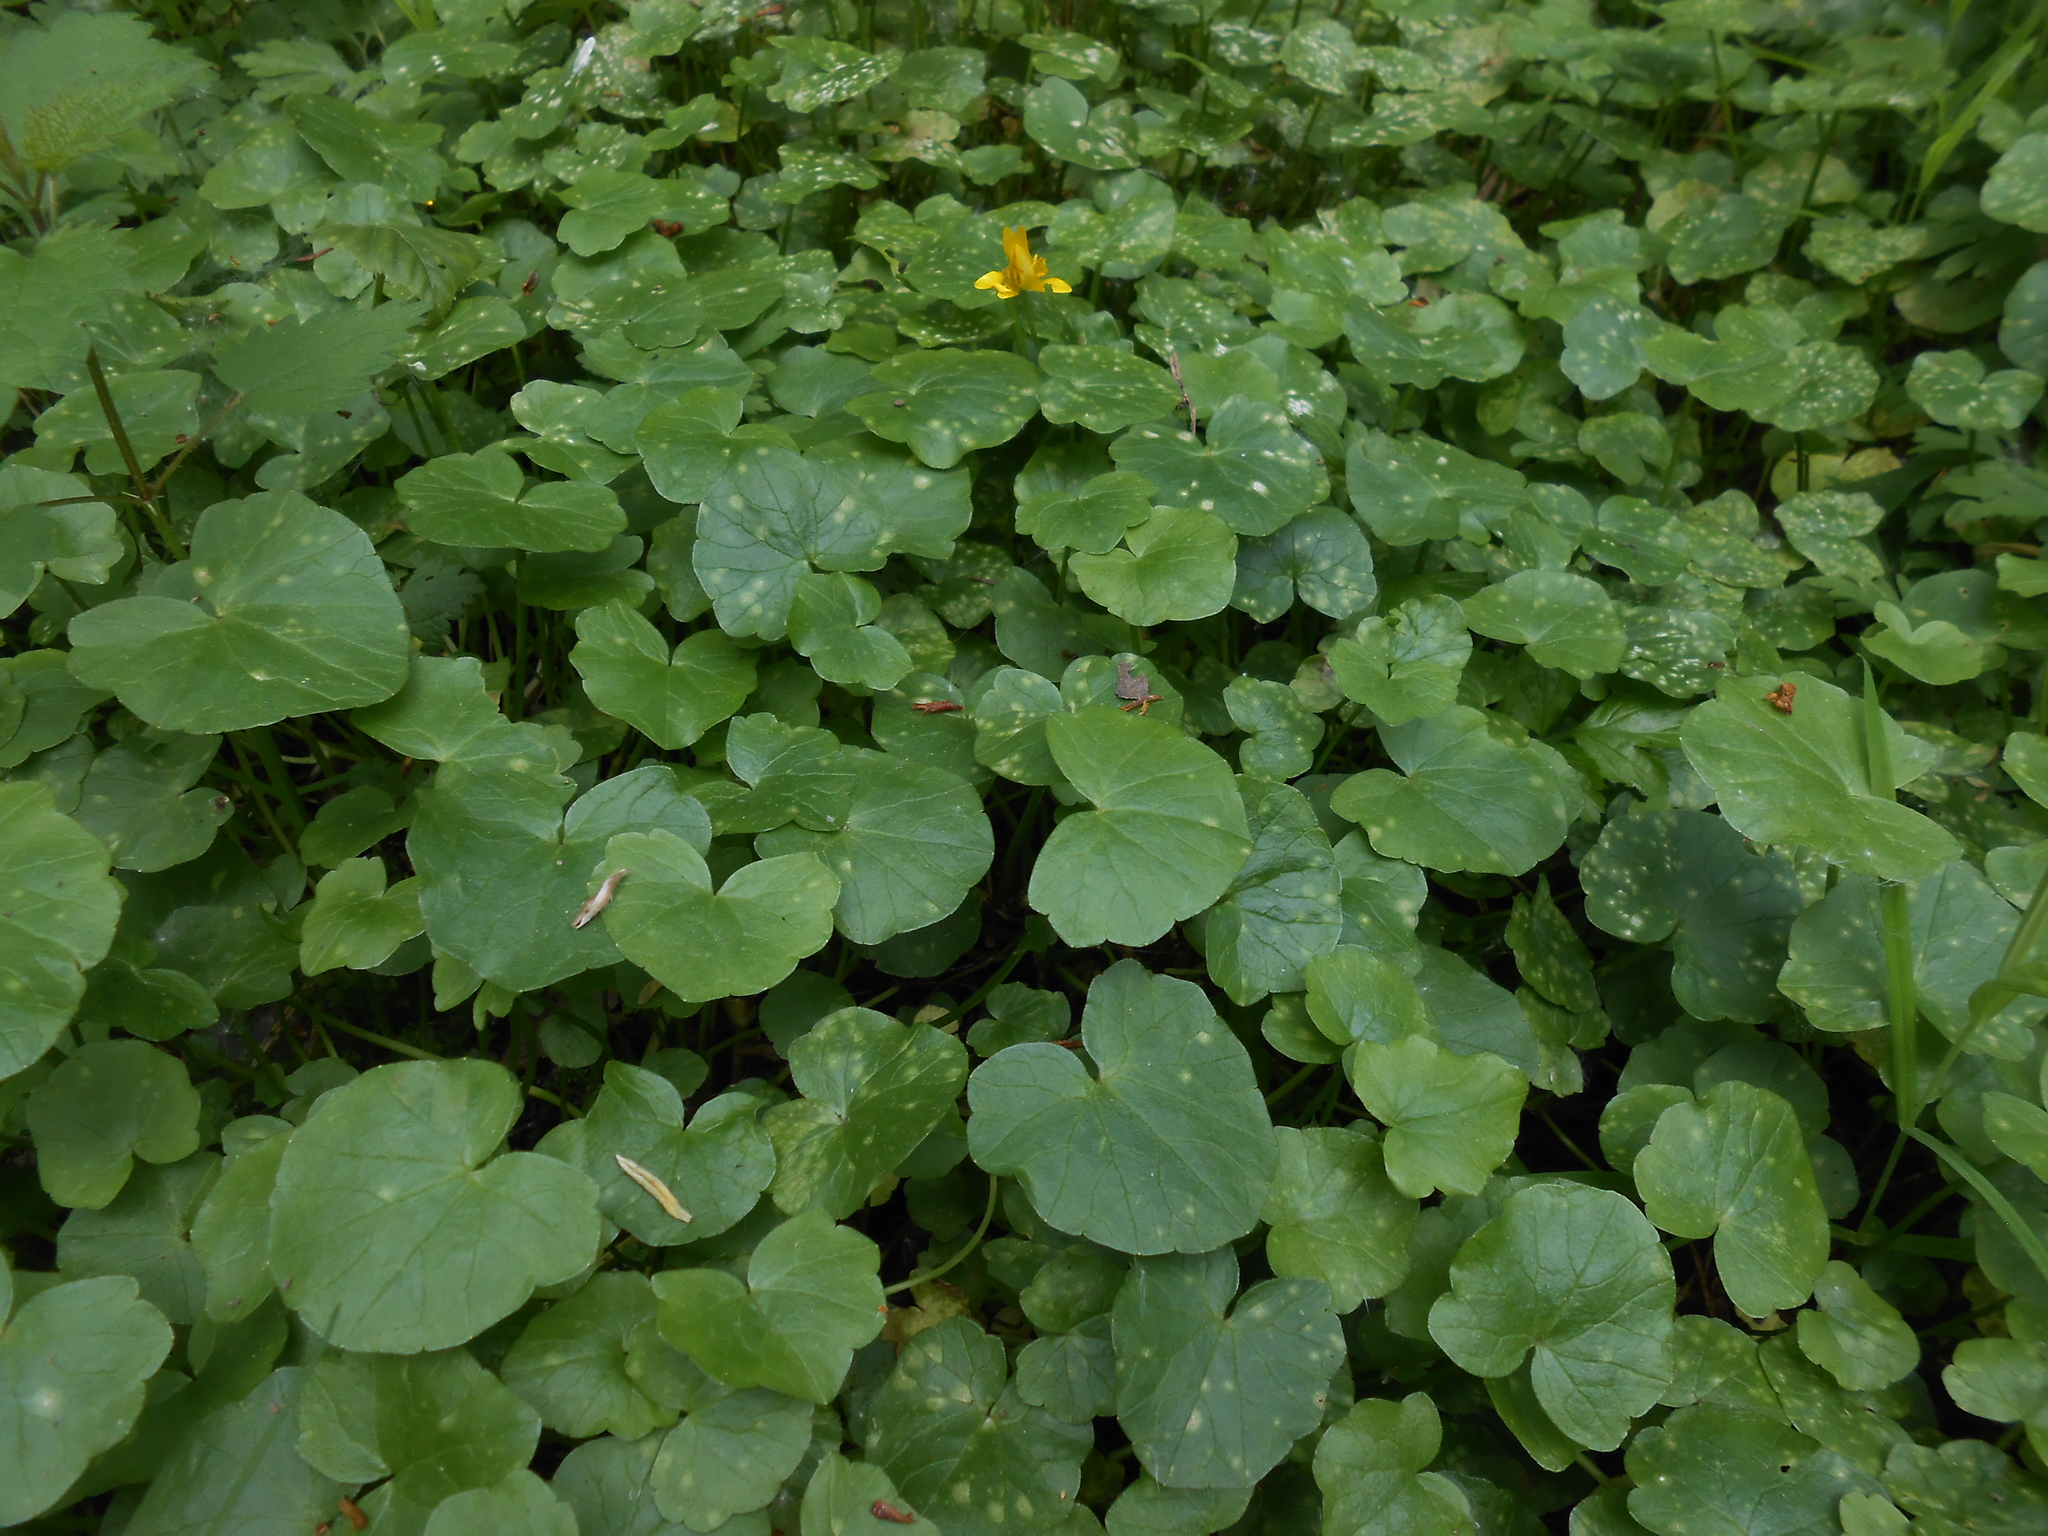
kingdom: Plantae
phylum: Tracheophyta
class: Magnoliopsida
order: Ranunculales
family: Ranunculaceae
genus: Ficaria
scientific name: Ficaria verna
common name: Lesser celandine
